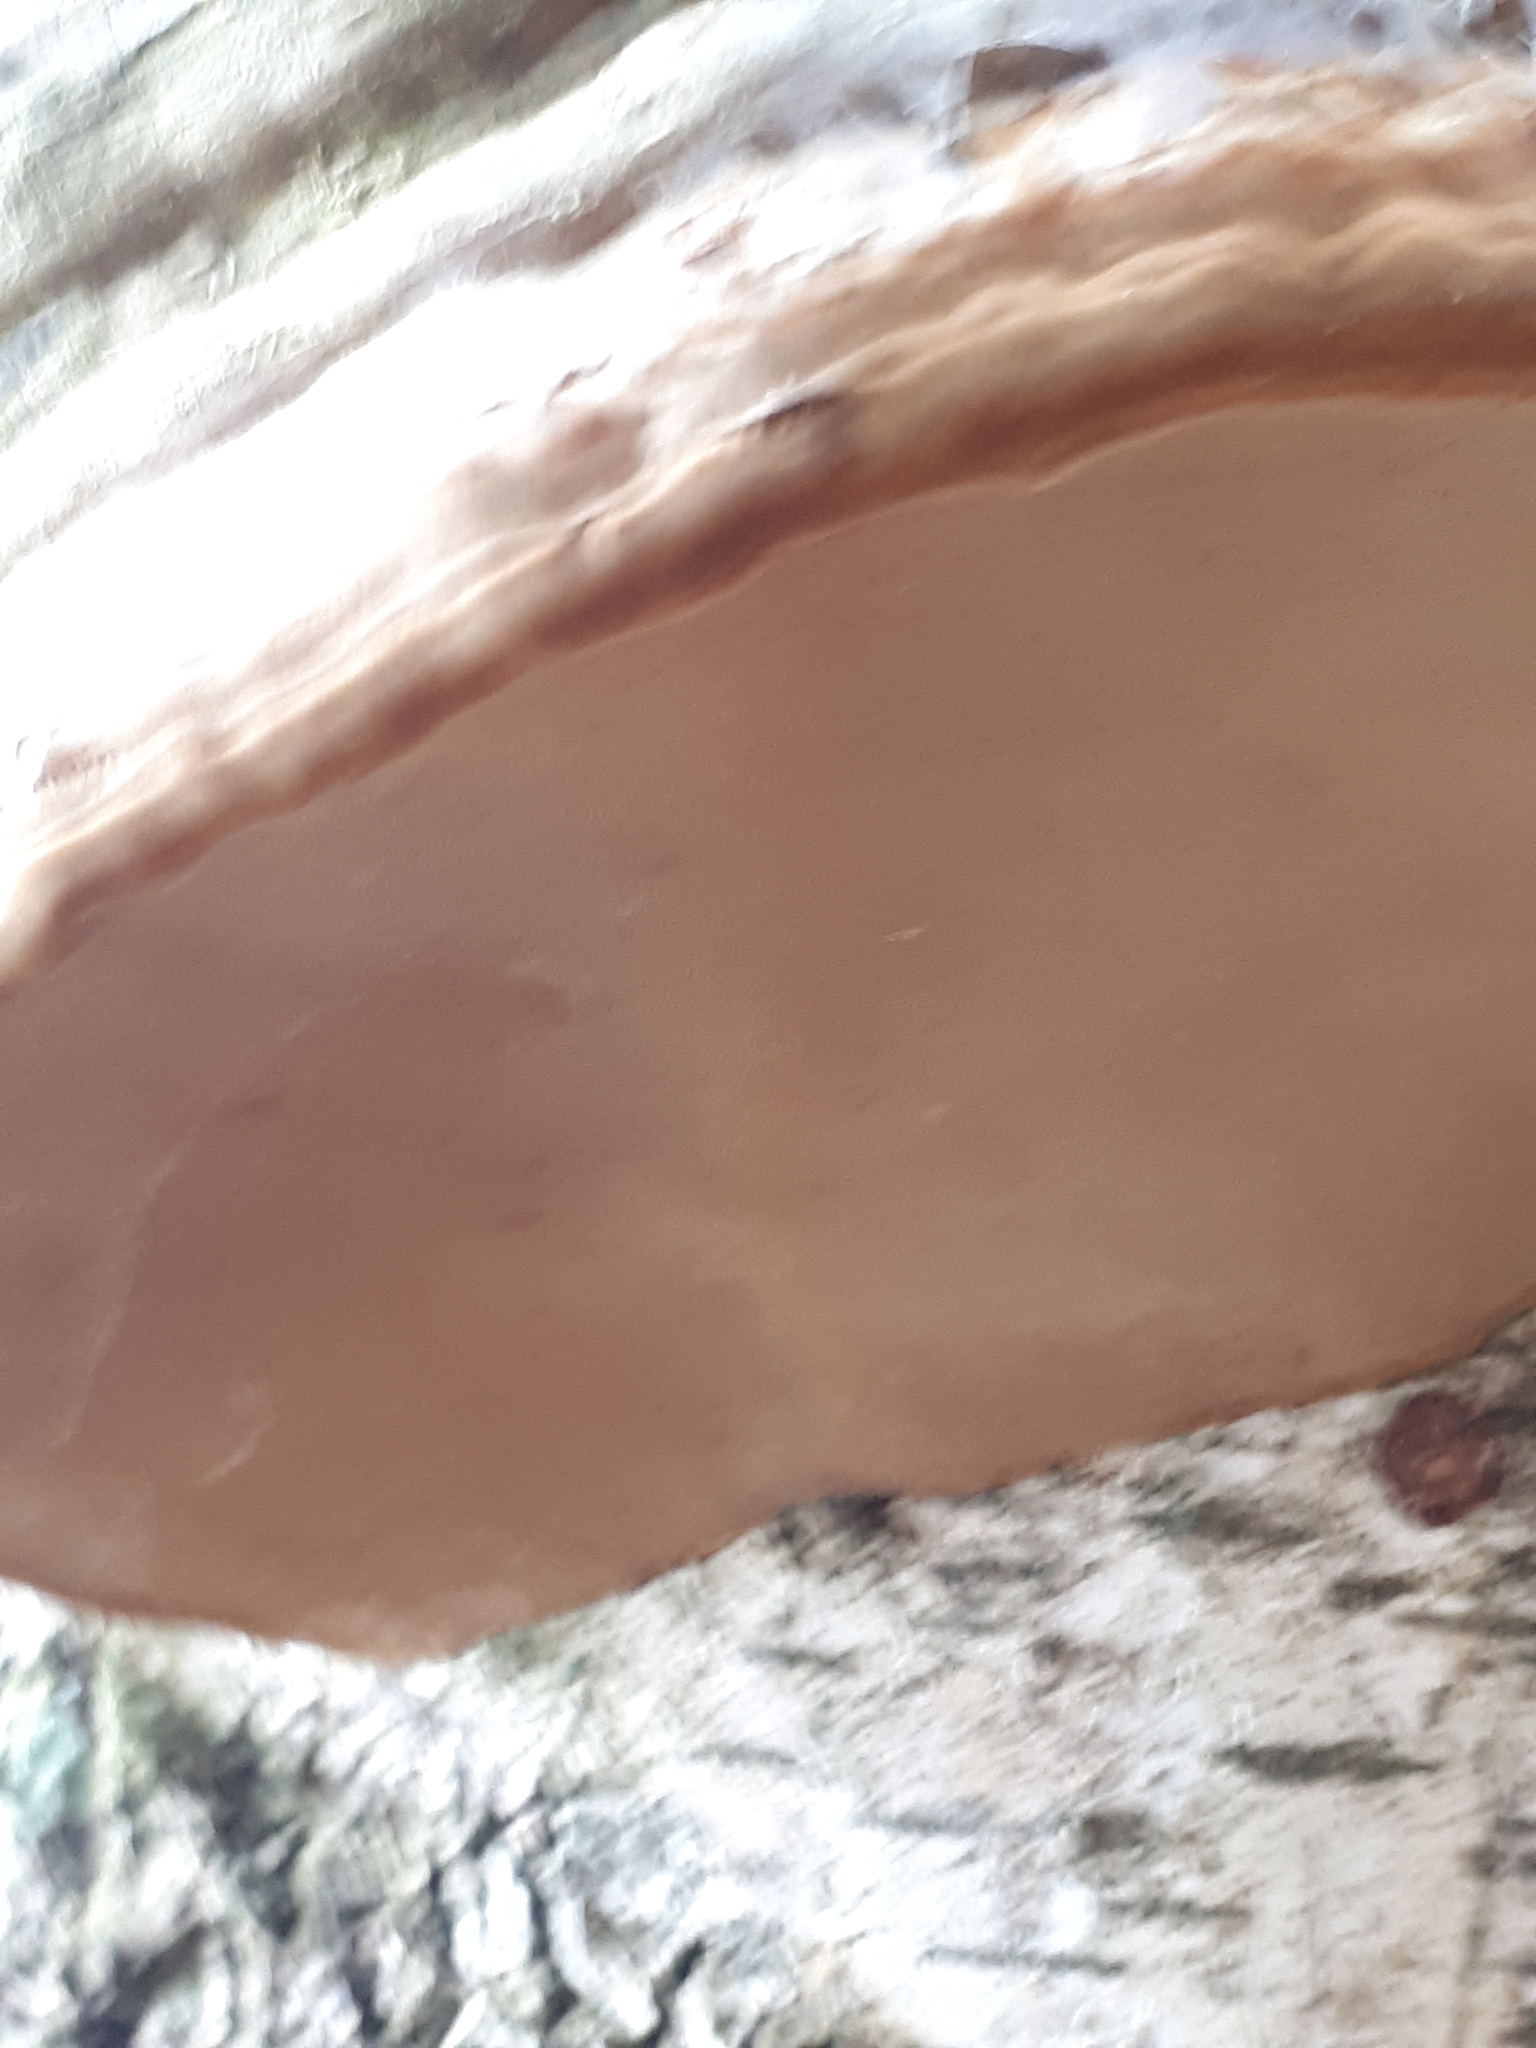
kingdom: Fungi
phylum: Basidiomycota
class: Agaricomycetes
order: Polyporales
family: Polyporaceae
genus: Fomes
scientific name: Fomes fomentarius
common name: Hoof fungus
